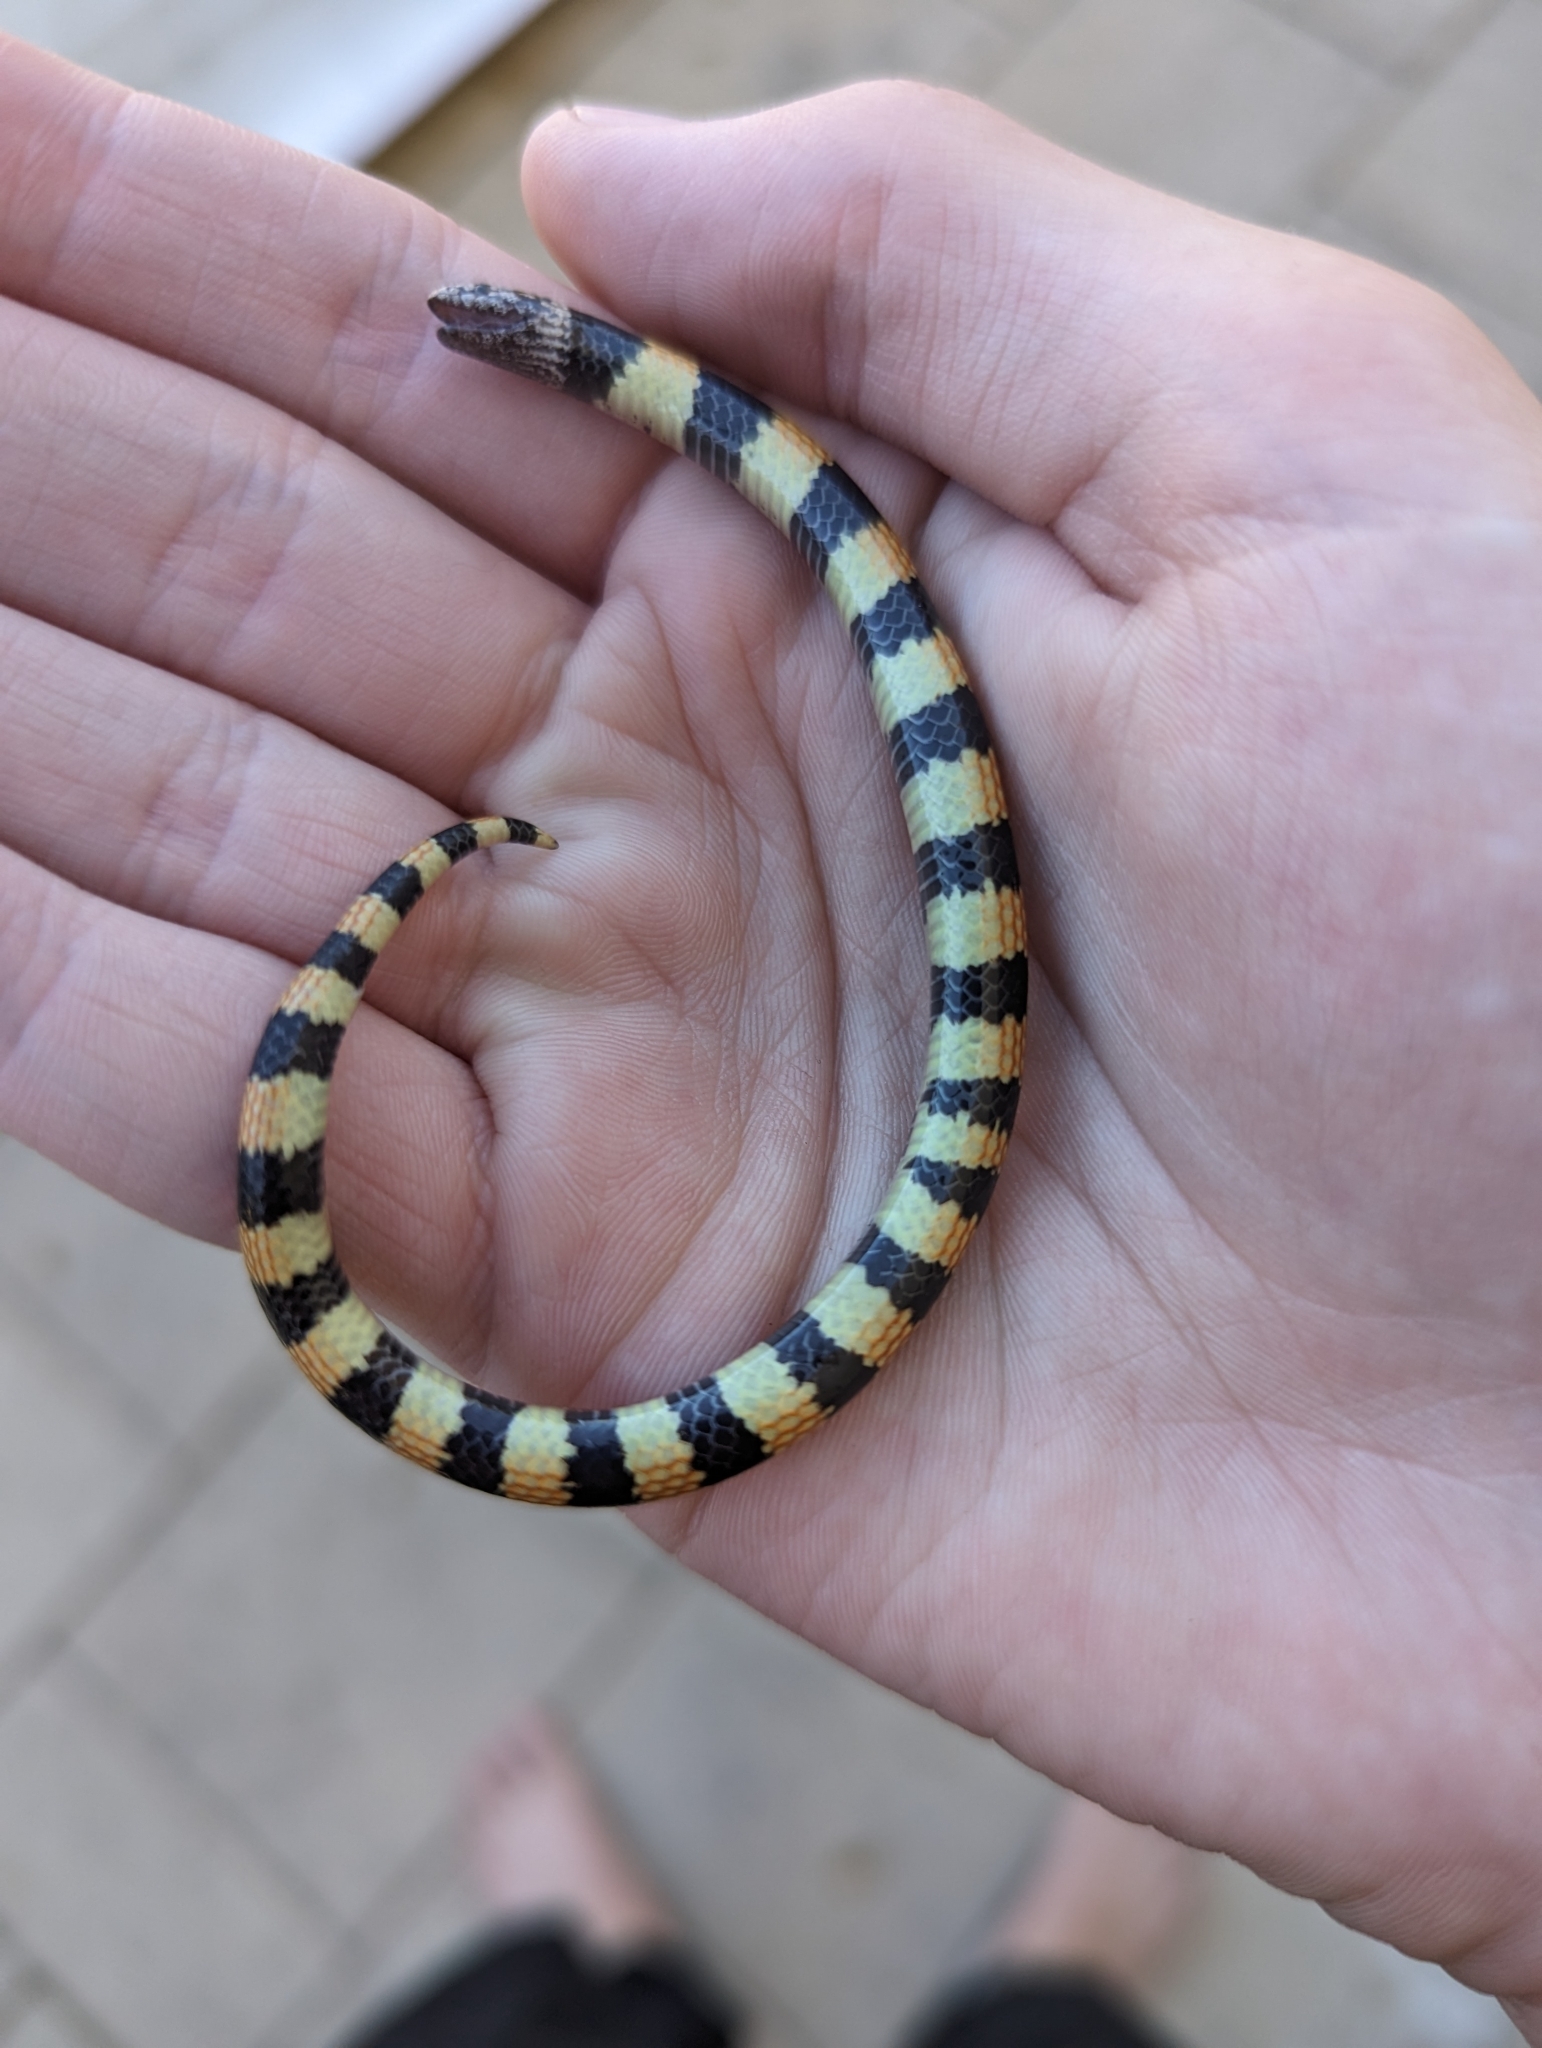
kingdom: Animalia
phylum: Chordata
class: Squamata
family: Elapidae
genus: Simoselaps
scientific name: Simoselaps bertholdi
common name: Desert banded snake
